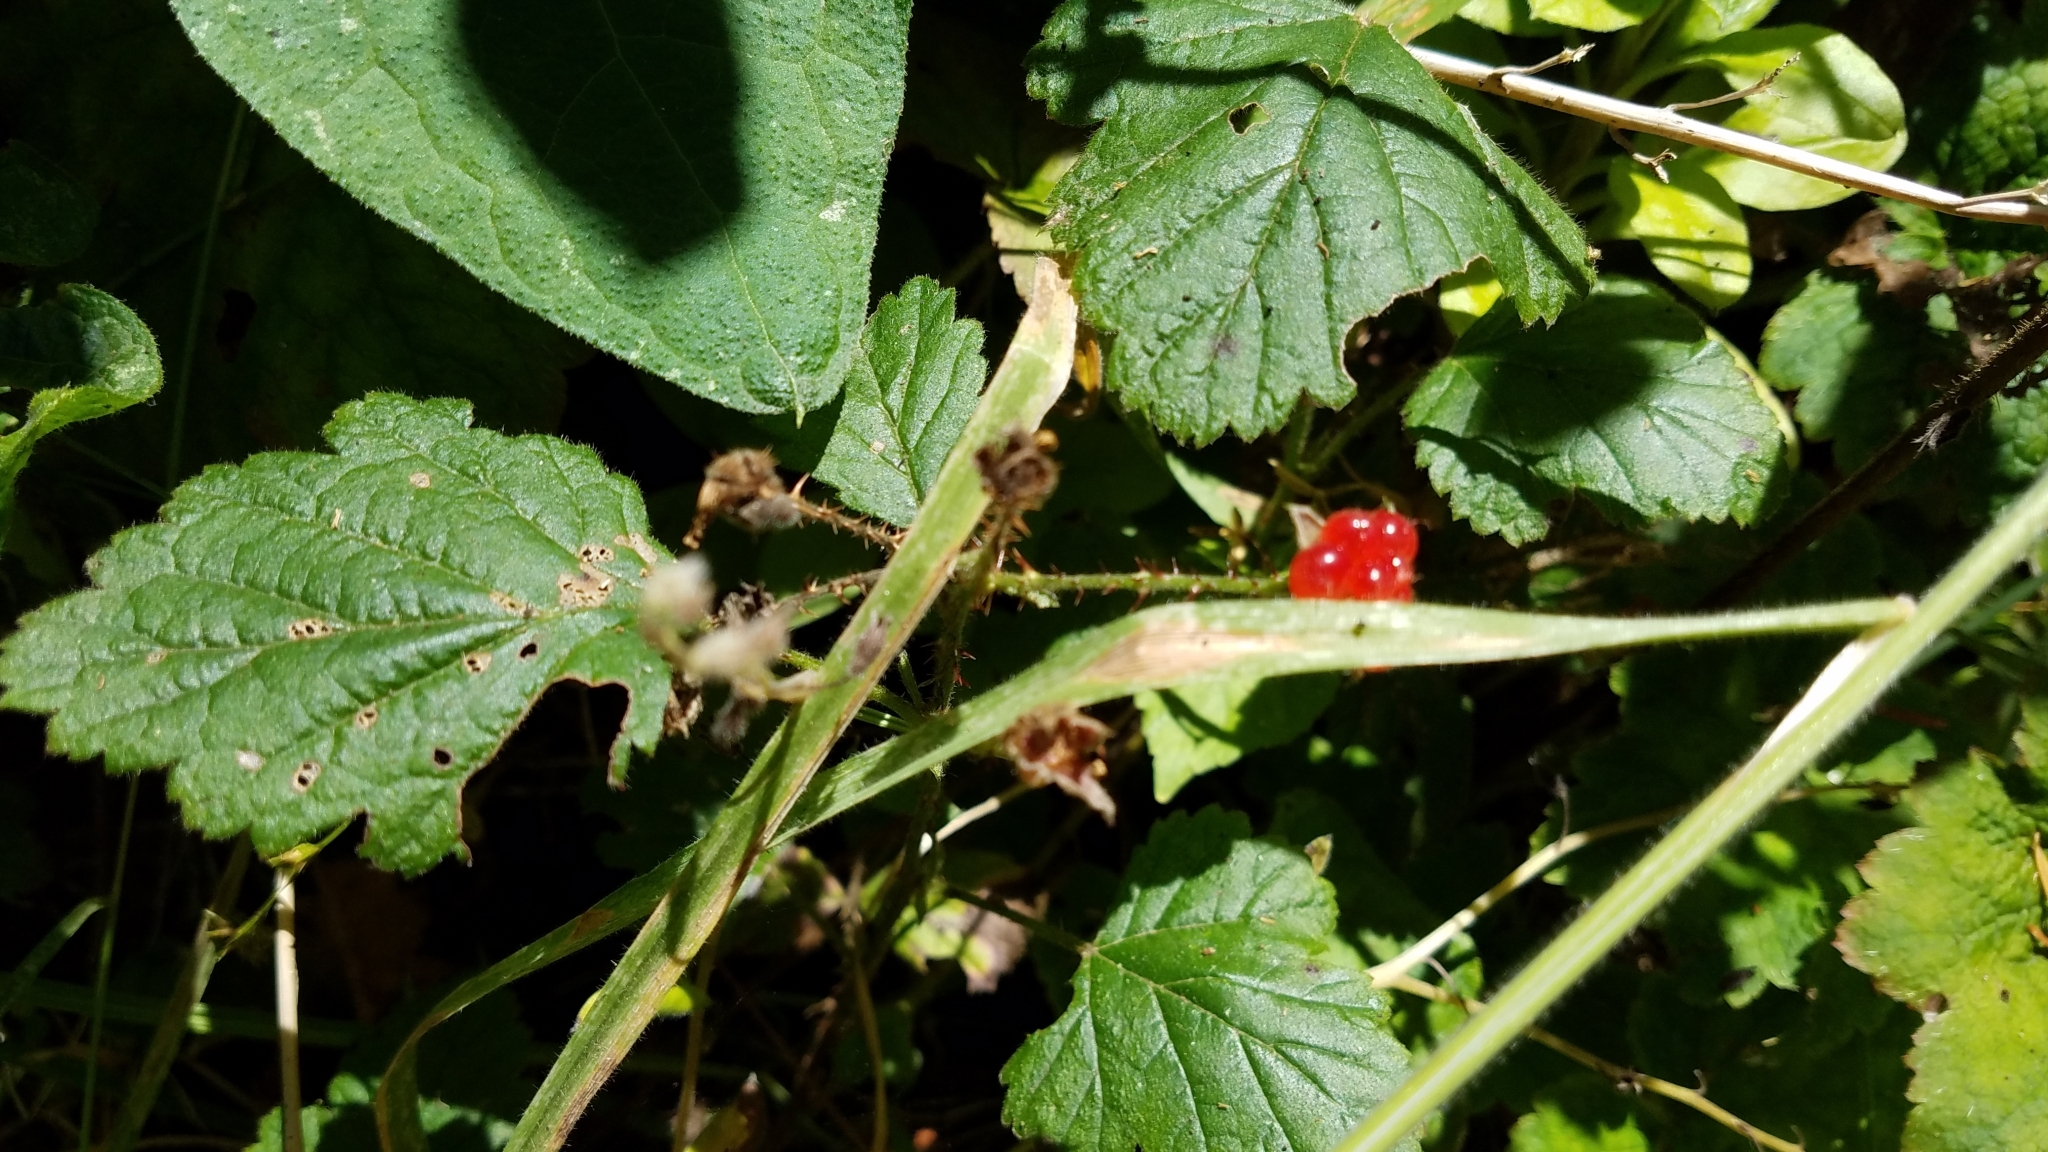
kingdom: Plantae
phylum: Tracheophyta
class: Magnoliopsida
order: Rosales
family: Rosaceae
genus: Rubus
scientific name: Rubus ursinus
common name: Pacific blackberry
